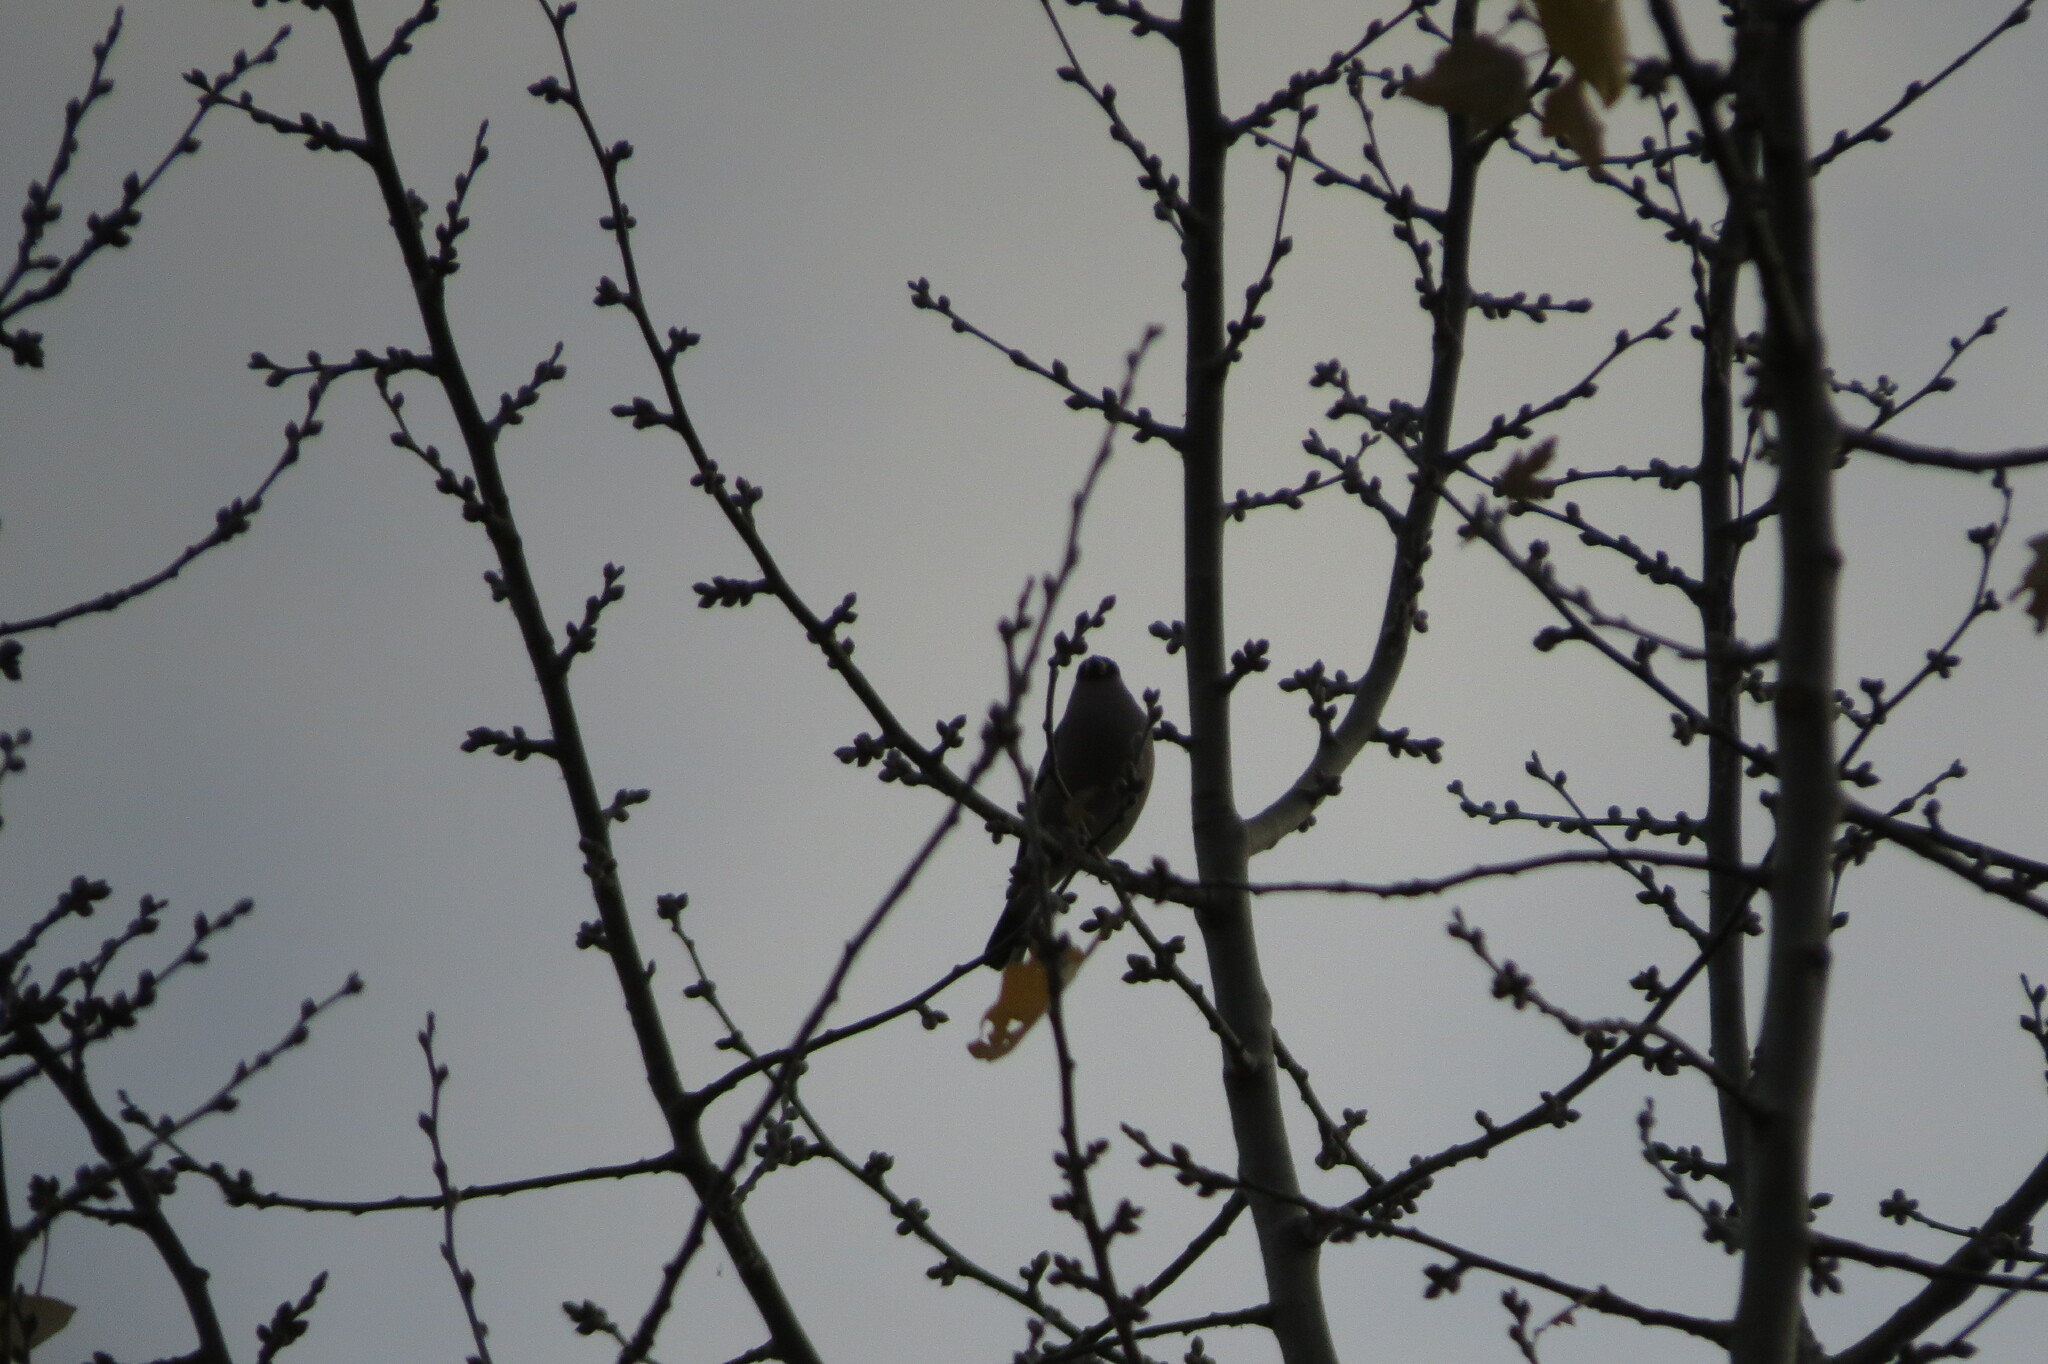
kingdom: Animalia
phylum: Chordata
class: Aves
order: Passeriformes
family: Fringillidae
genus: Pyrrhula
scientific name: Pyrrhula pyrrhula
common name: Eurasian bullfinch
